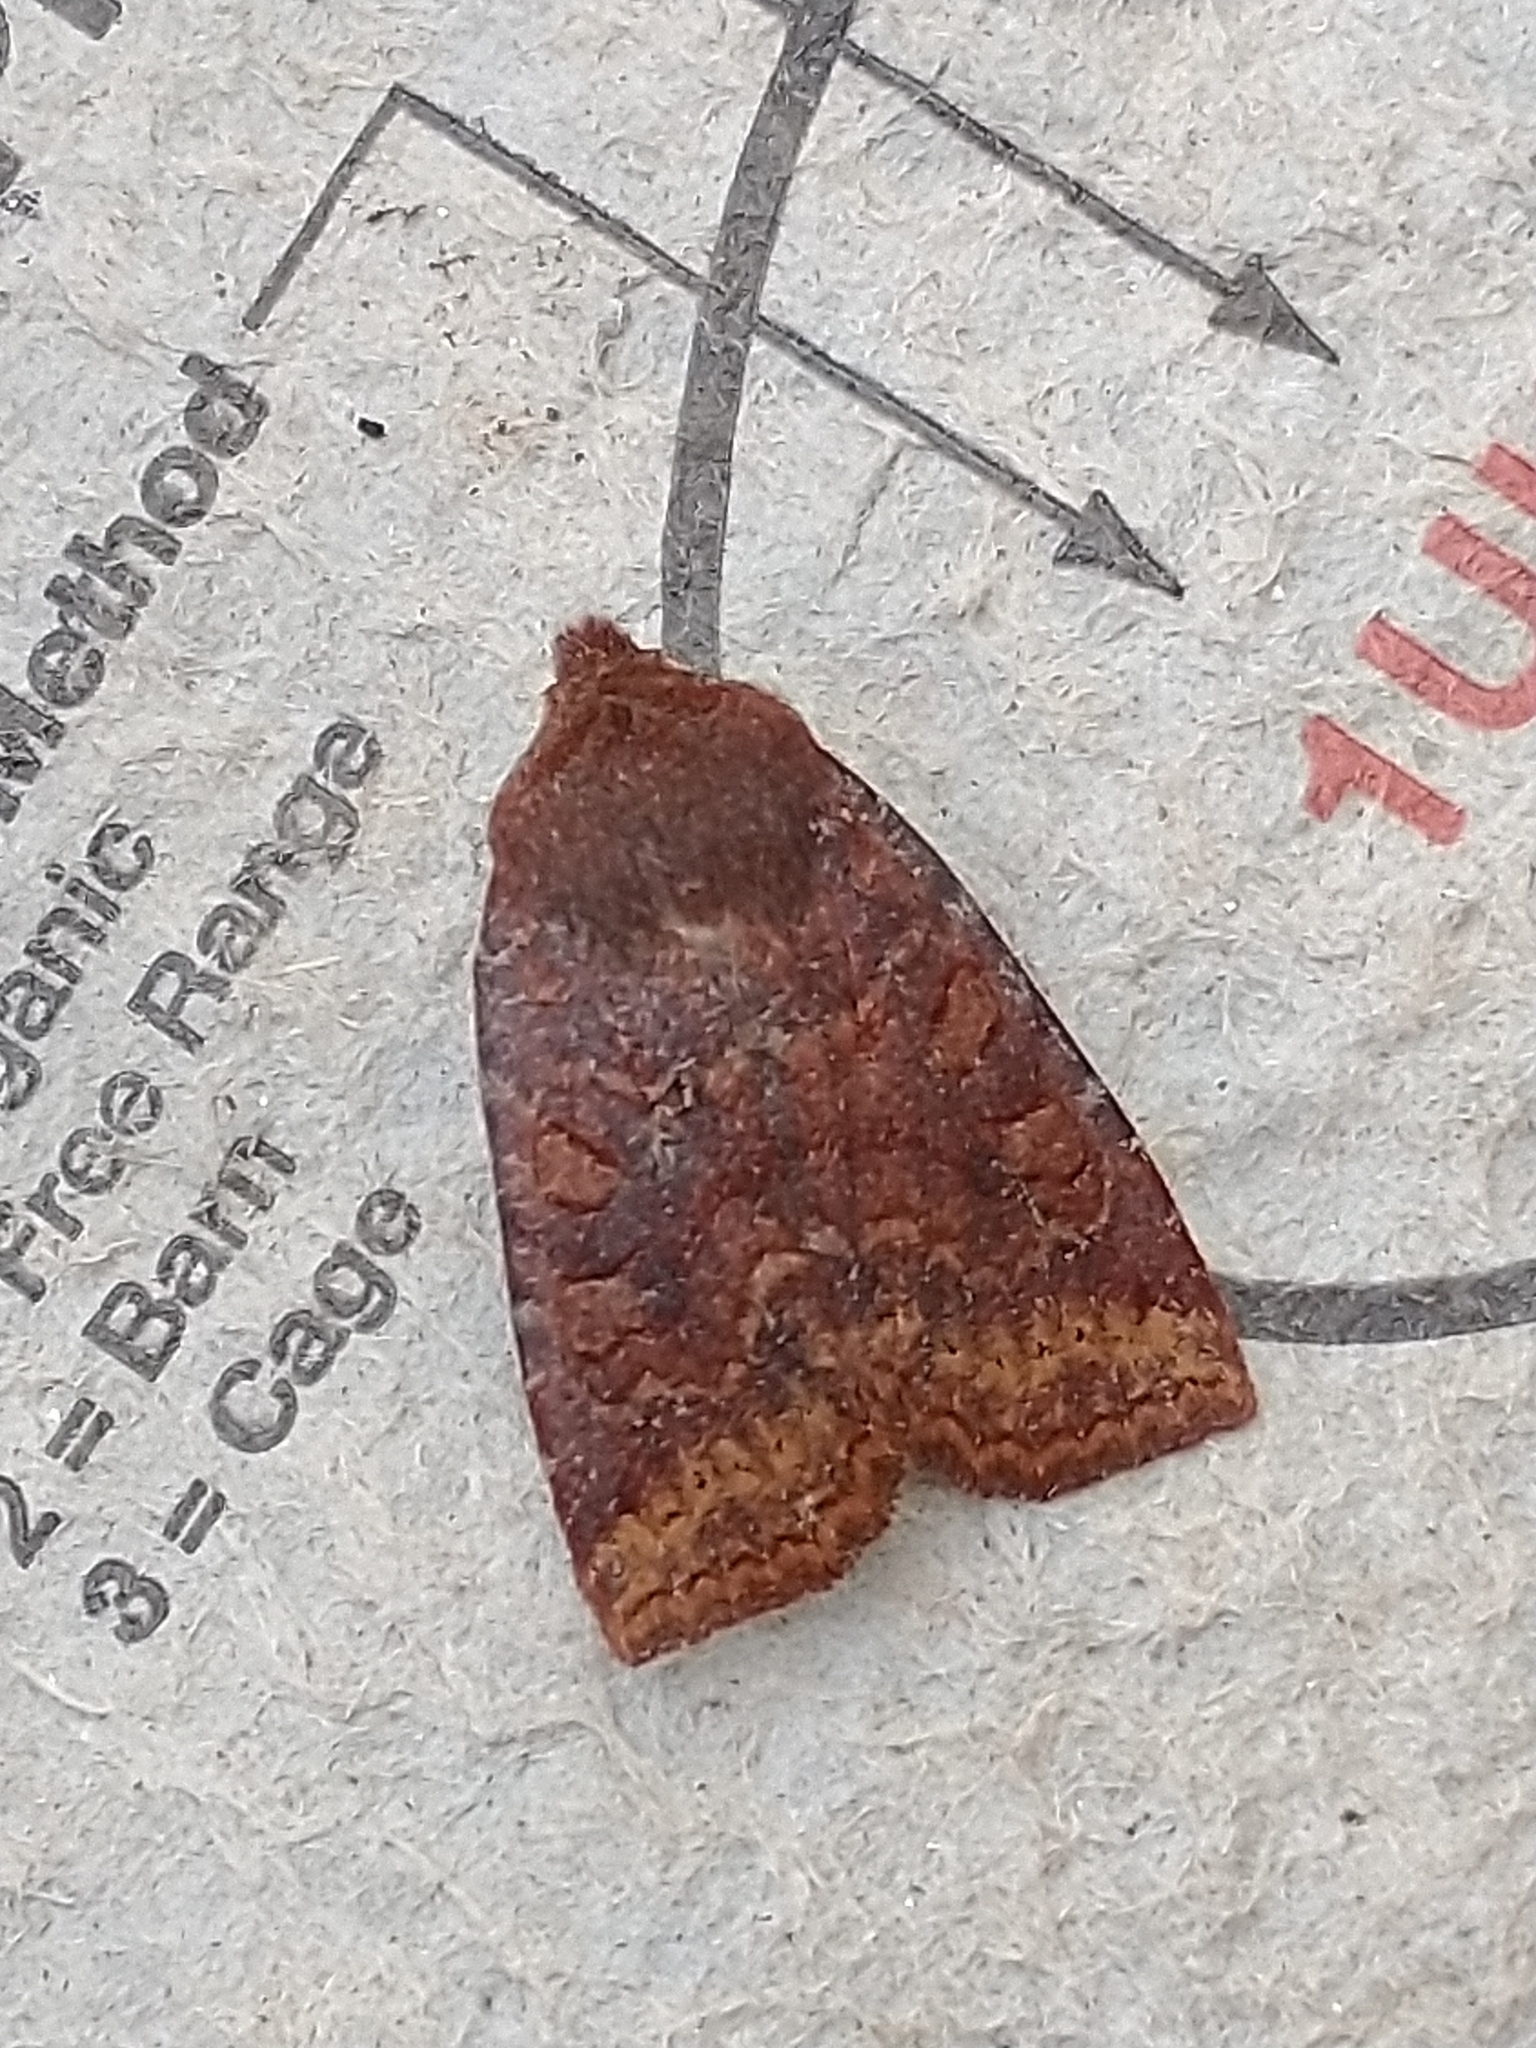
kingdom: Animalia
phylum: Arthropoda
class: Insecta
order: Lepidoptera
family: Noctuidae
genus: Conistra
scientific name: Conistra ligula
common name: Dark chestnut
